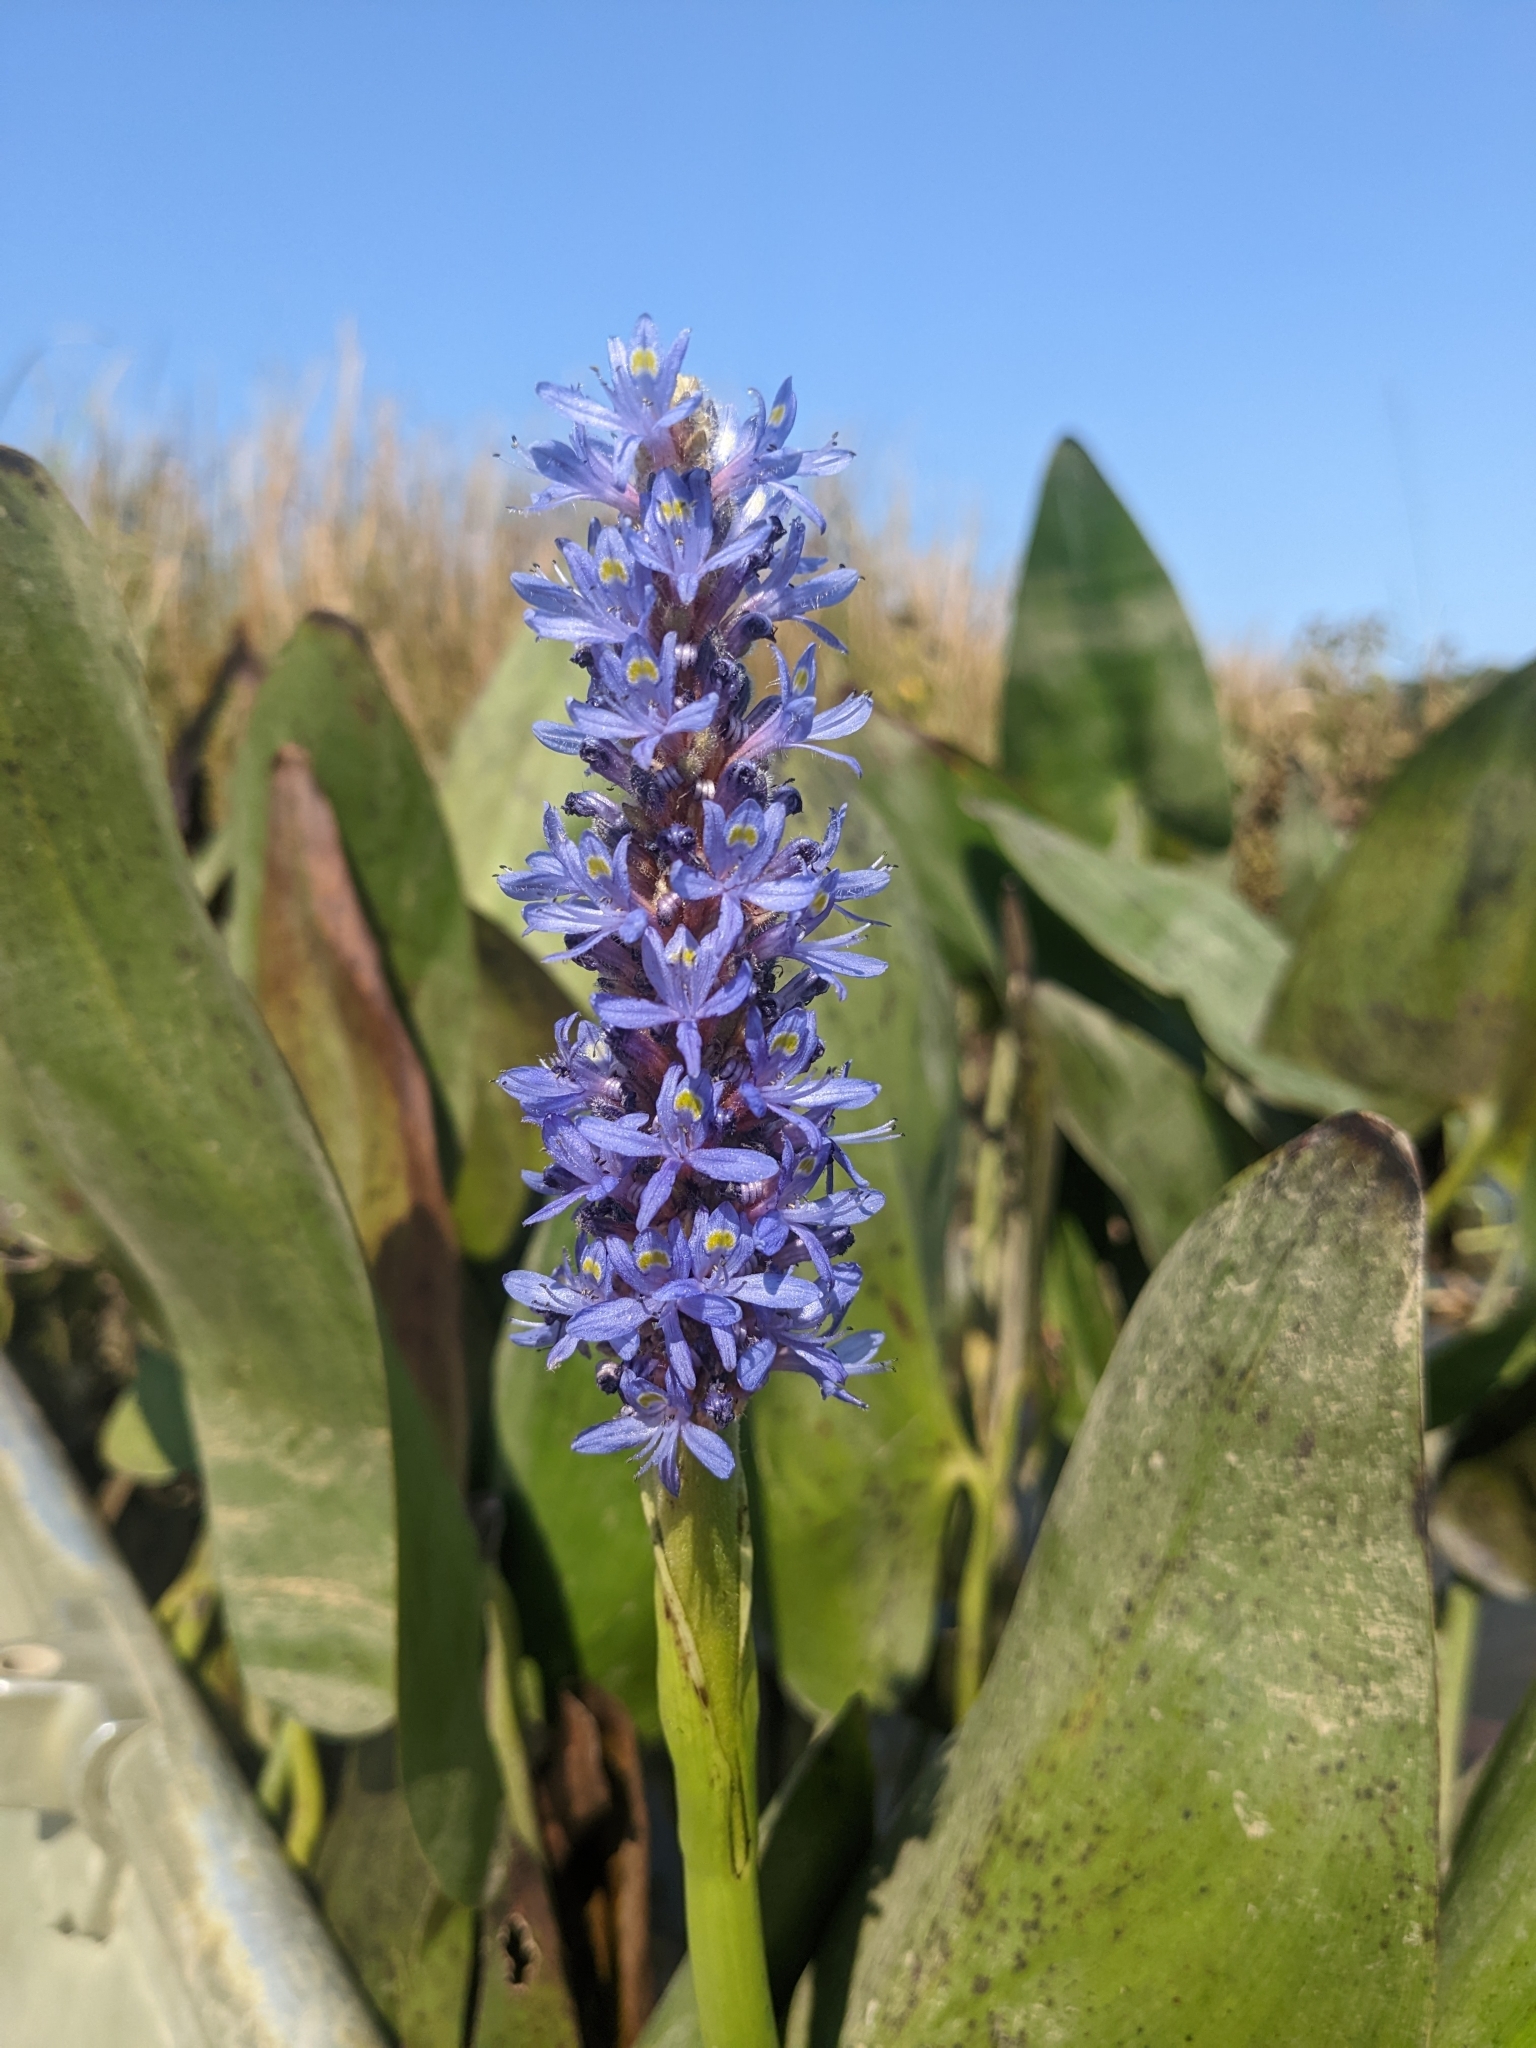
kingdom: Plantae
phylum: Tracheophyta
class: Liliopsida
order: Commelinales
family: Pontederiaceae
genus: Pontederia
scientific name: Pontederia cordata
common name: Pickerelweed
